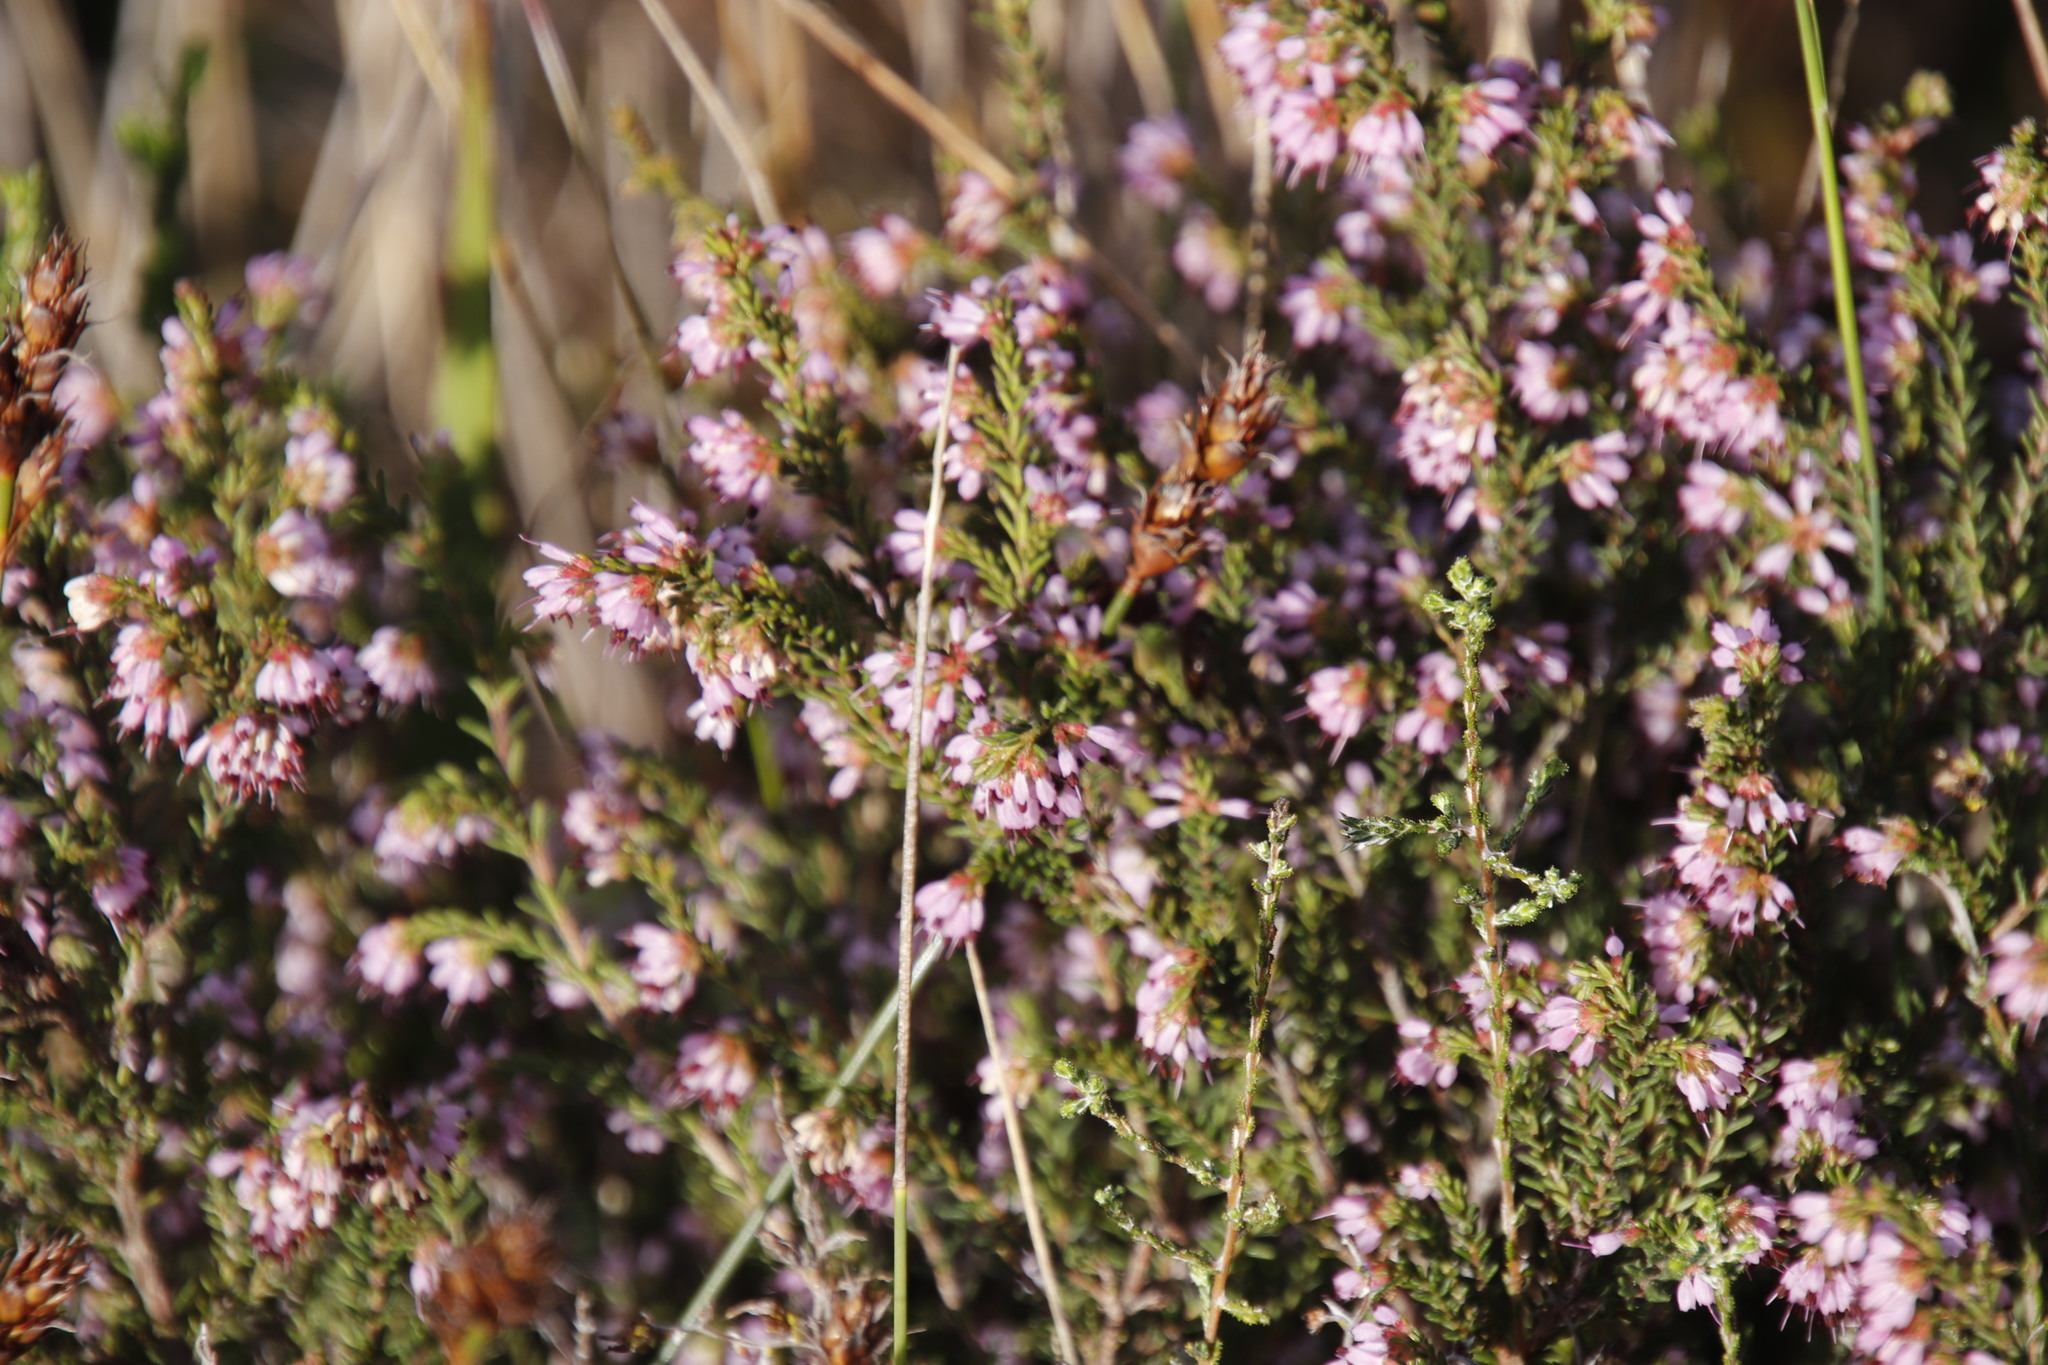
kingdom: Plantae
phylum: Tracheophyta
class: Magnoliopsida
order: Ericales
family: Ericaceae
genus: Erica
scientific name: Erica glabella
